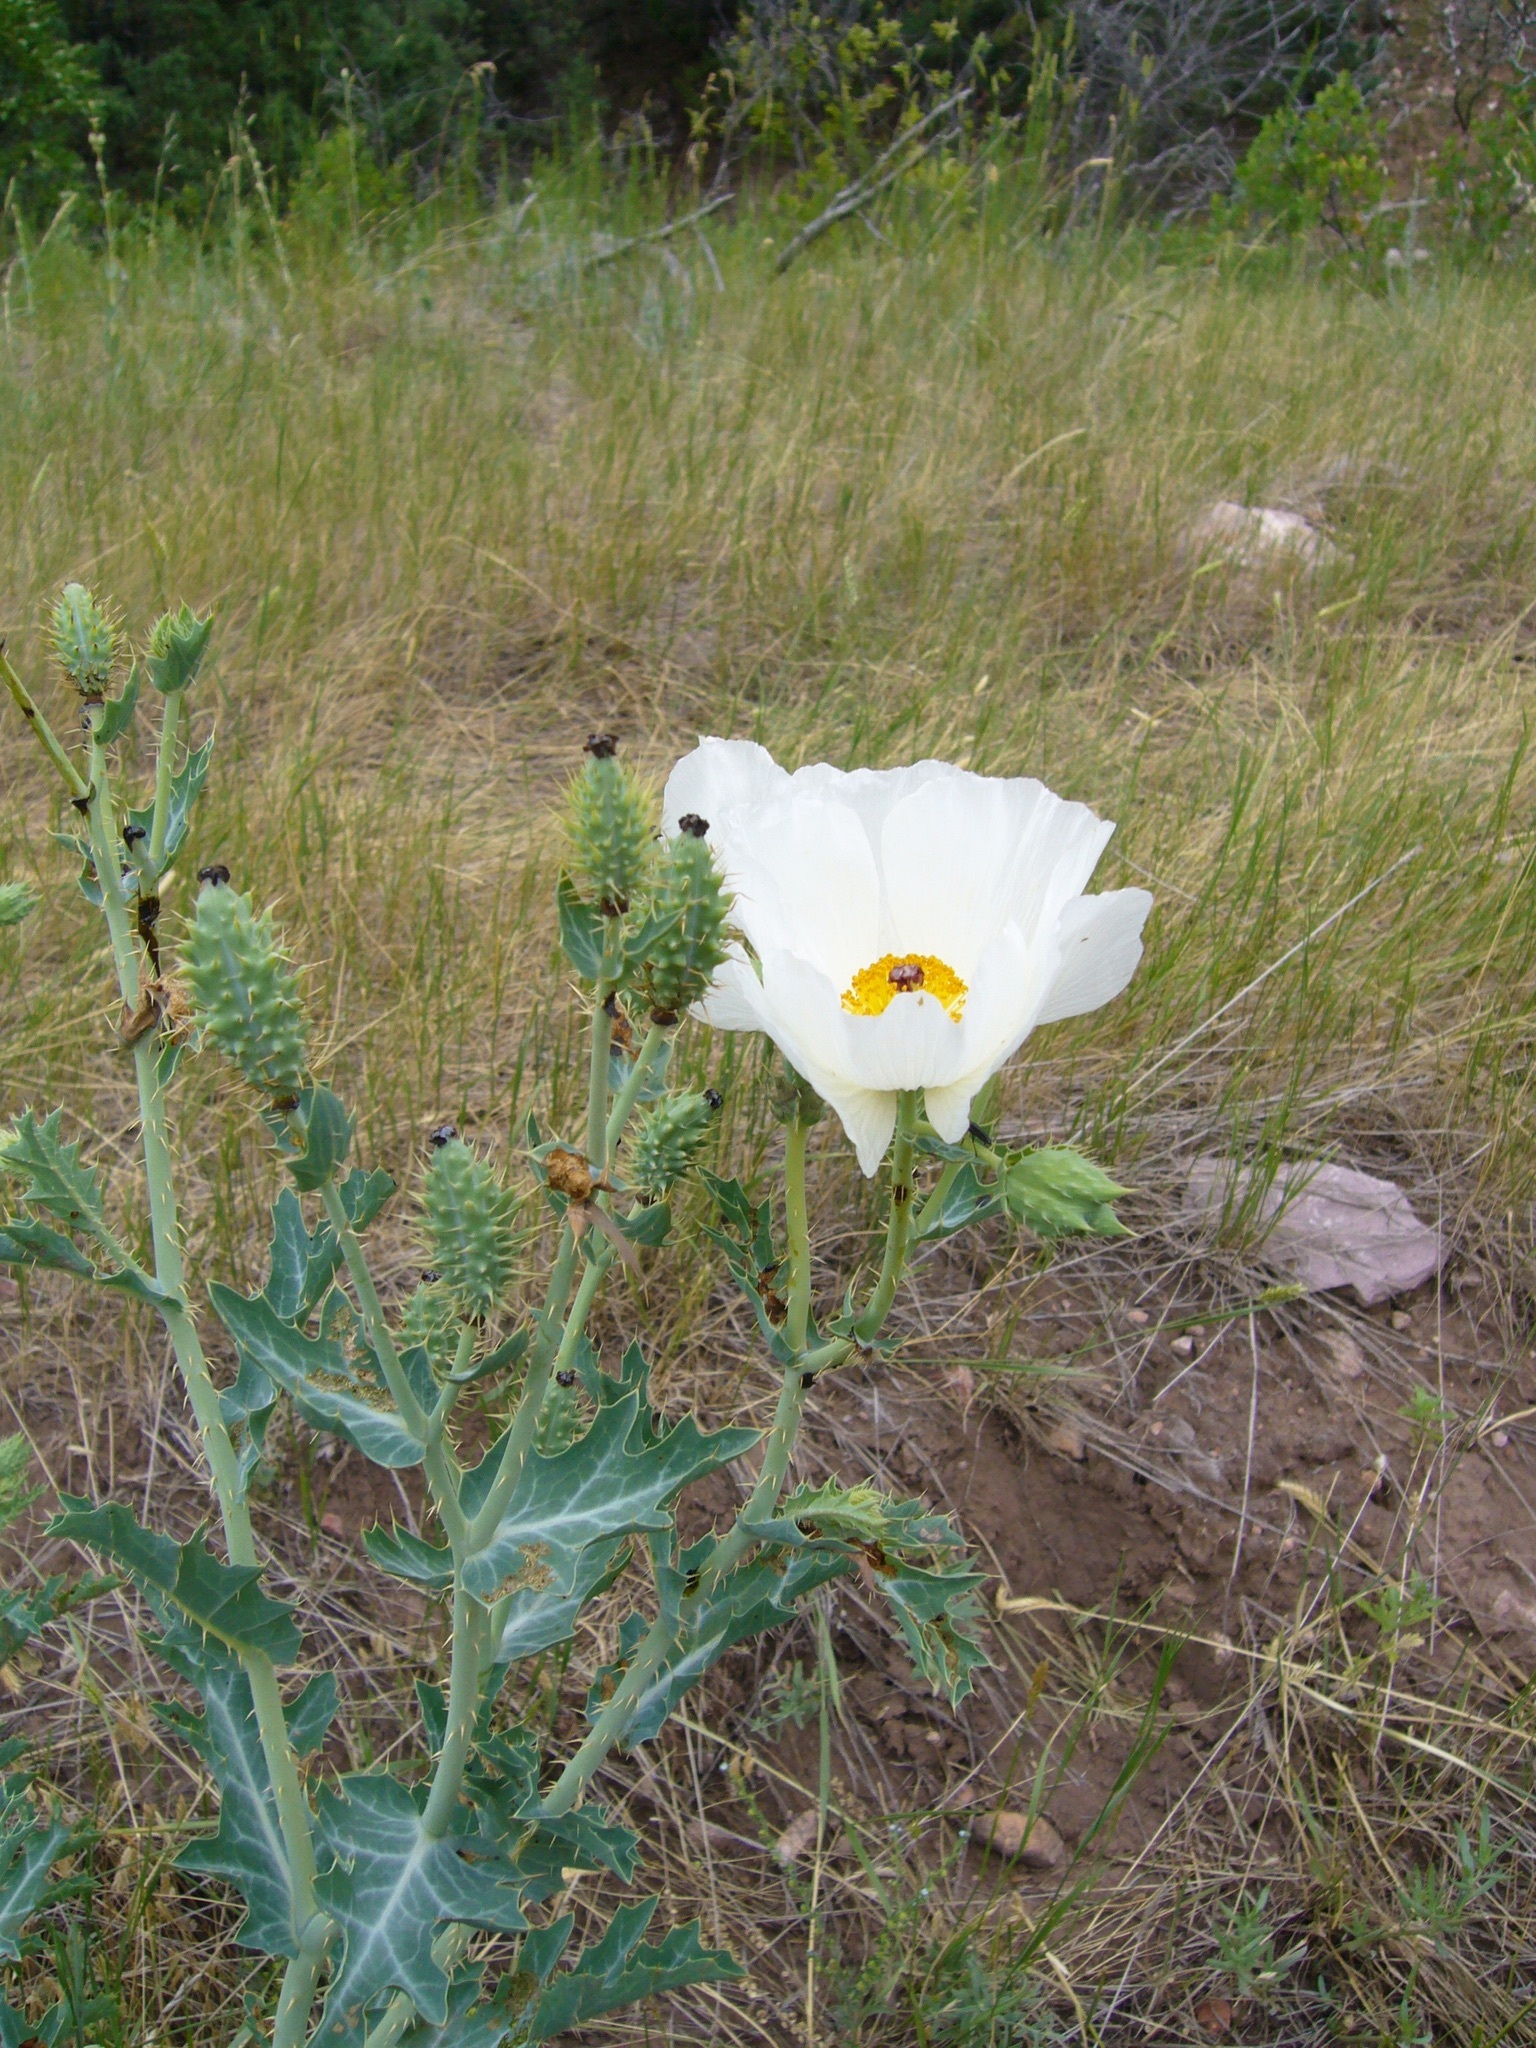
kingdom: Plantae
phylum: Tracheophyta
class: Magnoliopsida
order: Ranunculales
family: Papaveraceae
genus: Argemone
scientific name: Argemone polyanthemos
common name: Plains prickly-poppy
